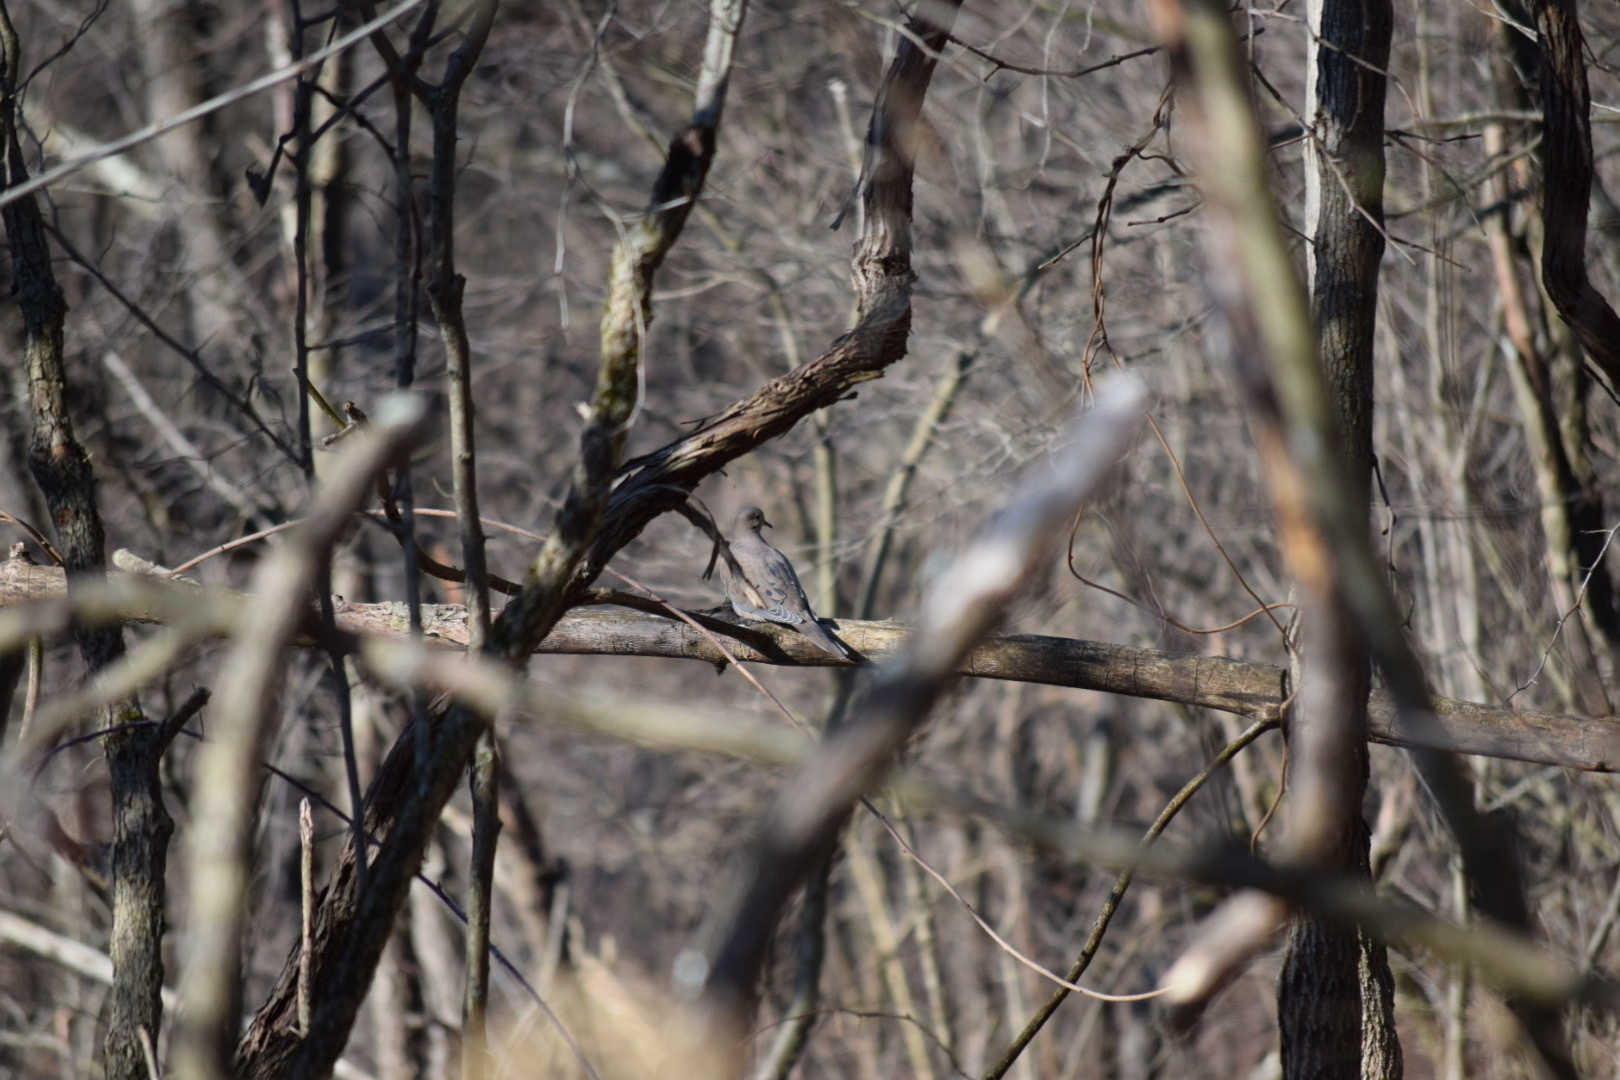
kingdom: Animalia
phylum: Chordata
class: Aves
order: Columbiformes
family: Columbidae
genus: Zenaida
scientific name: Zenaida macroura
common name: Mourning dove
